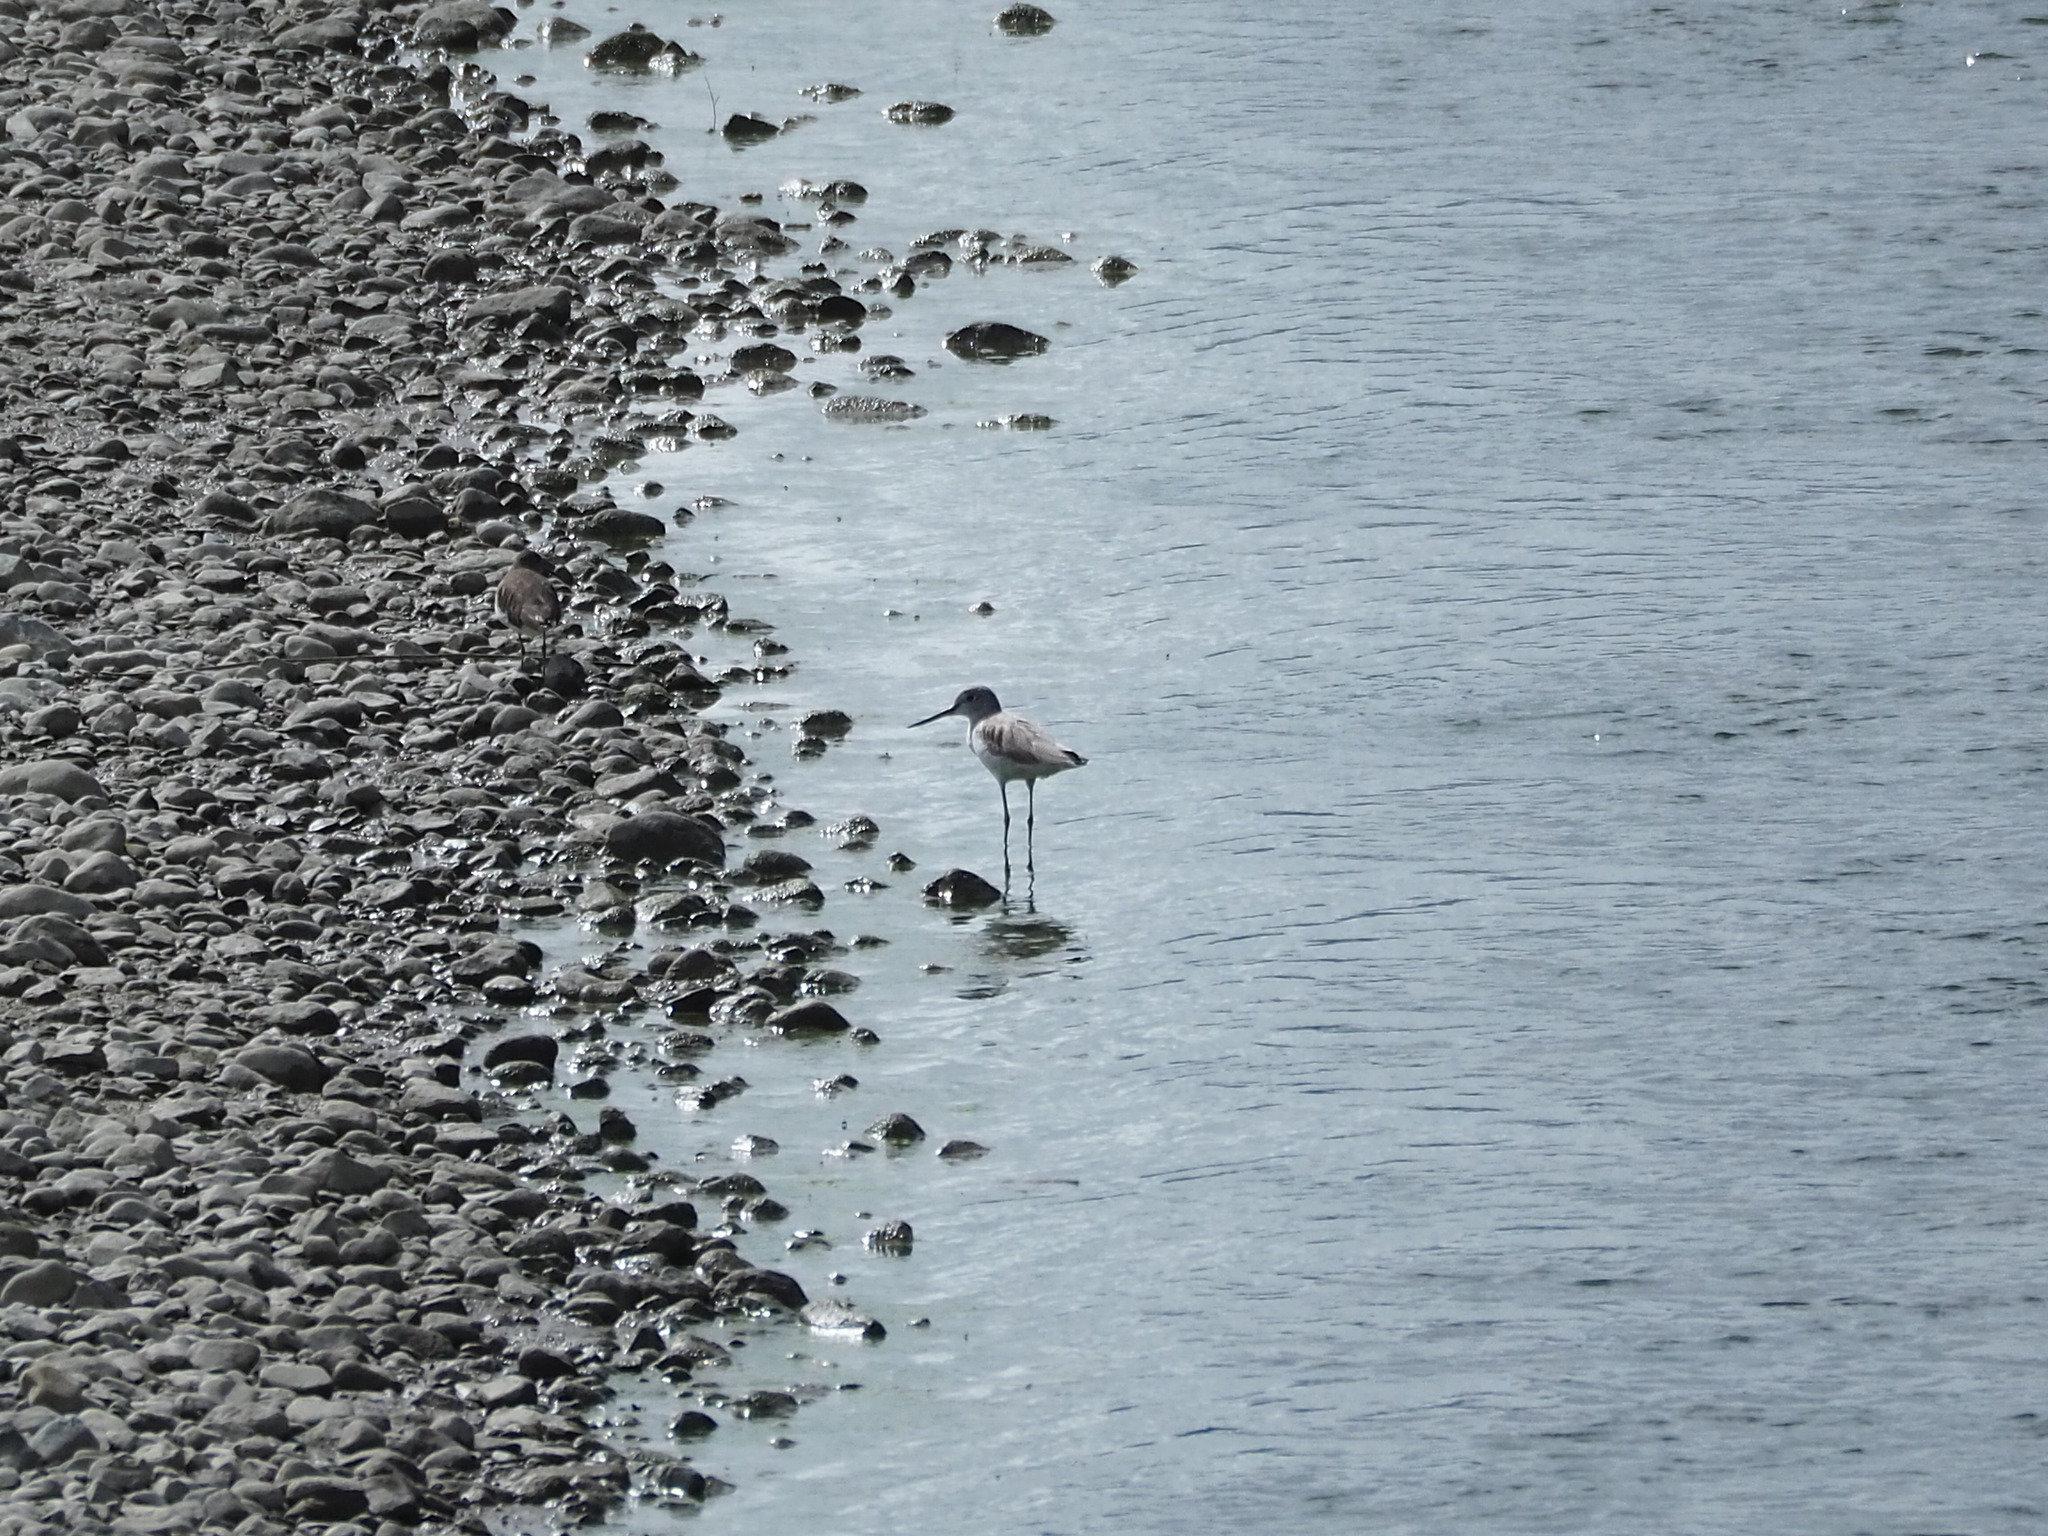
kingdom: Animalia
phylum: Chordata
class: Aves
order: Charadriiformes
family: Scolopacidae
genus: Tringa
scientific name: Tringa nebularia
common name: Common greenshank
